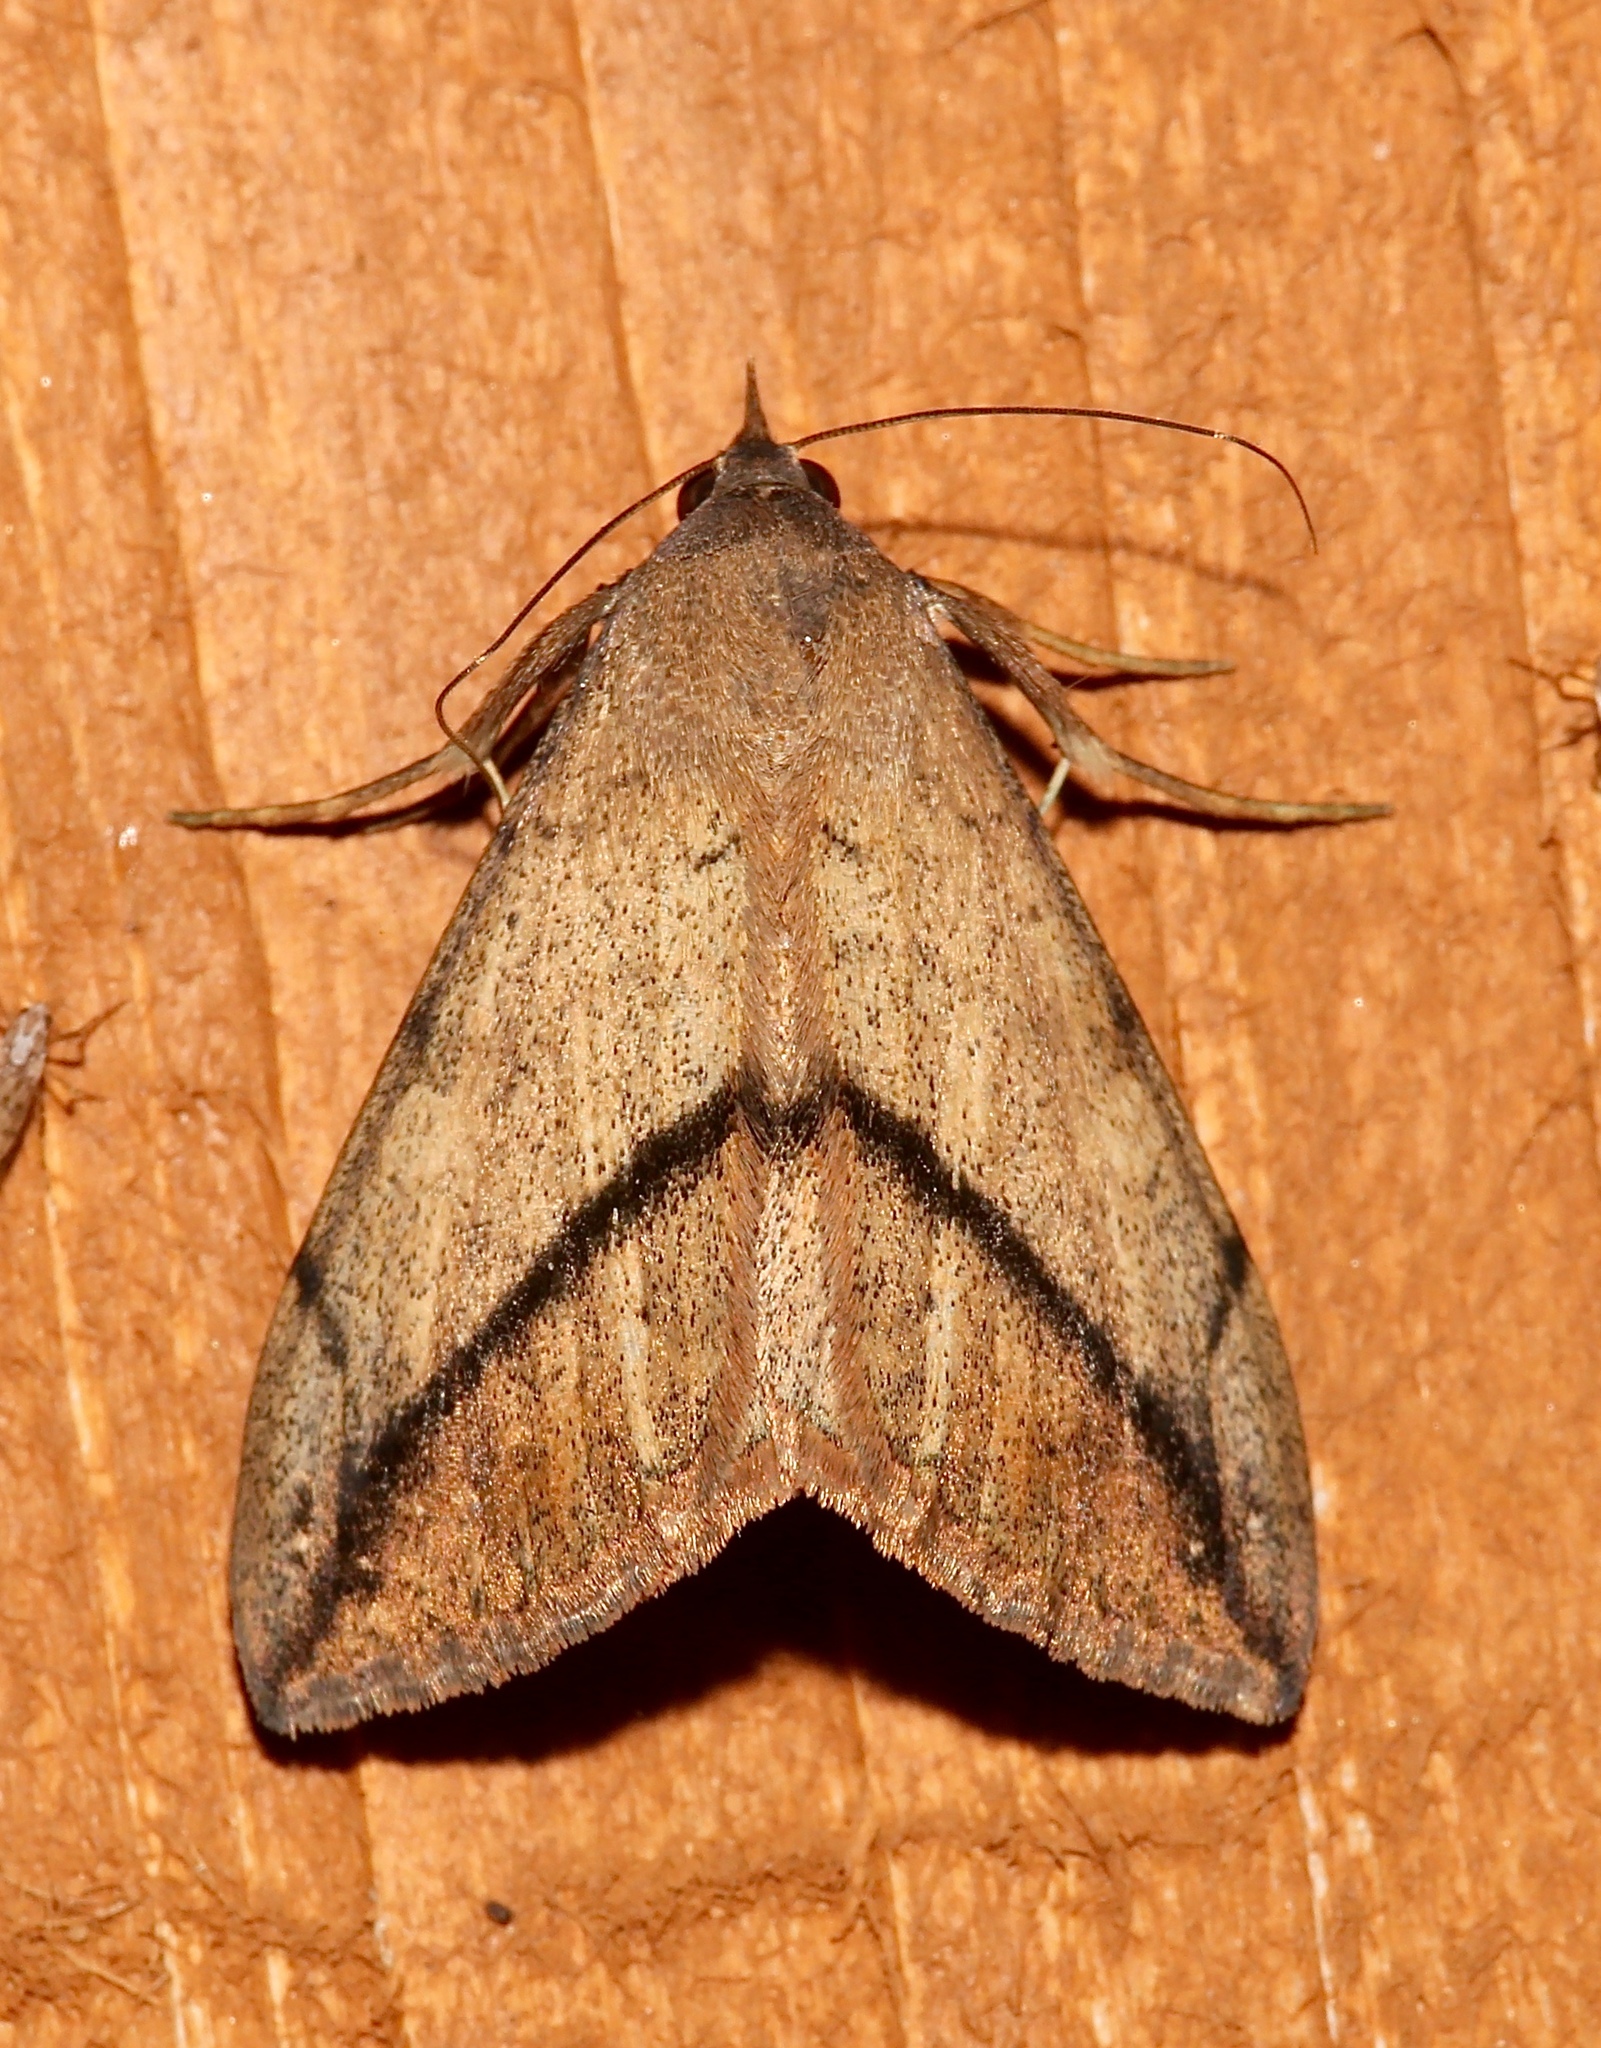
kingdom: Animalia
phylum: Arthropoda
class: Insecta
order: Lepidoptera
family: Erebidae
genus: Anticarsia
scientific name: Anticarsia gemmatalis
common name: Cutworm moth
